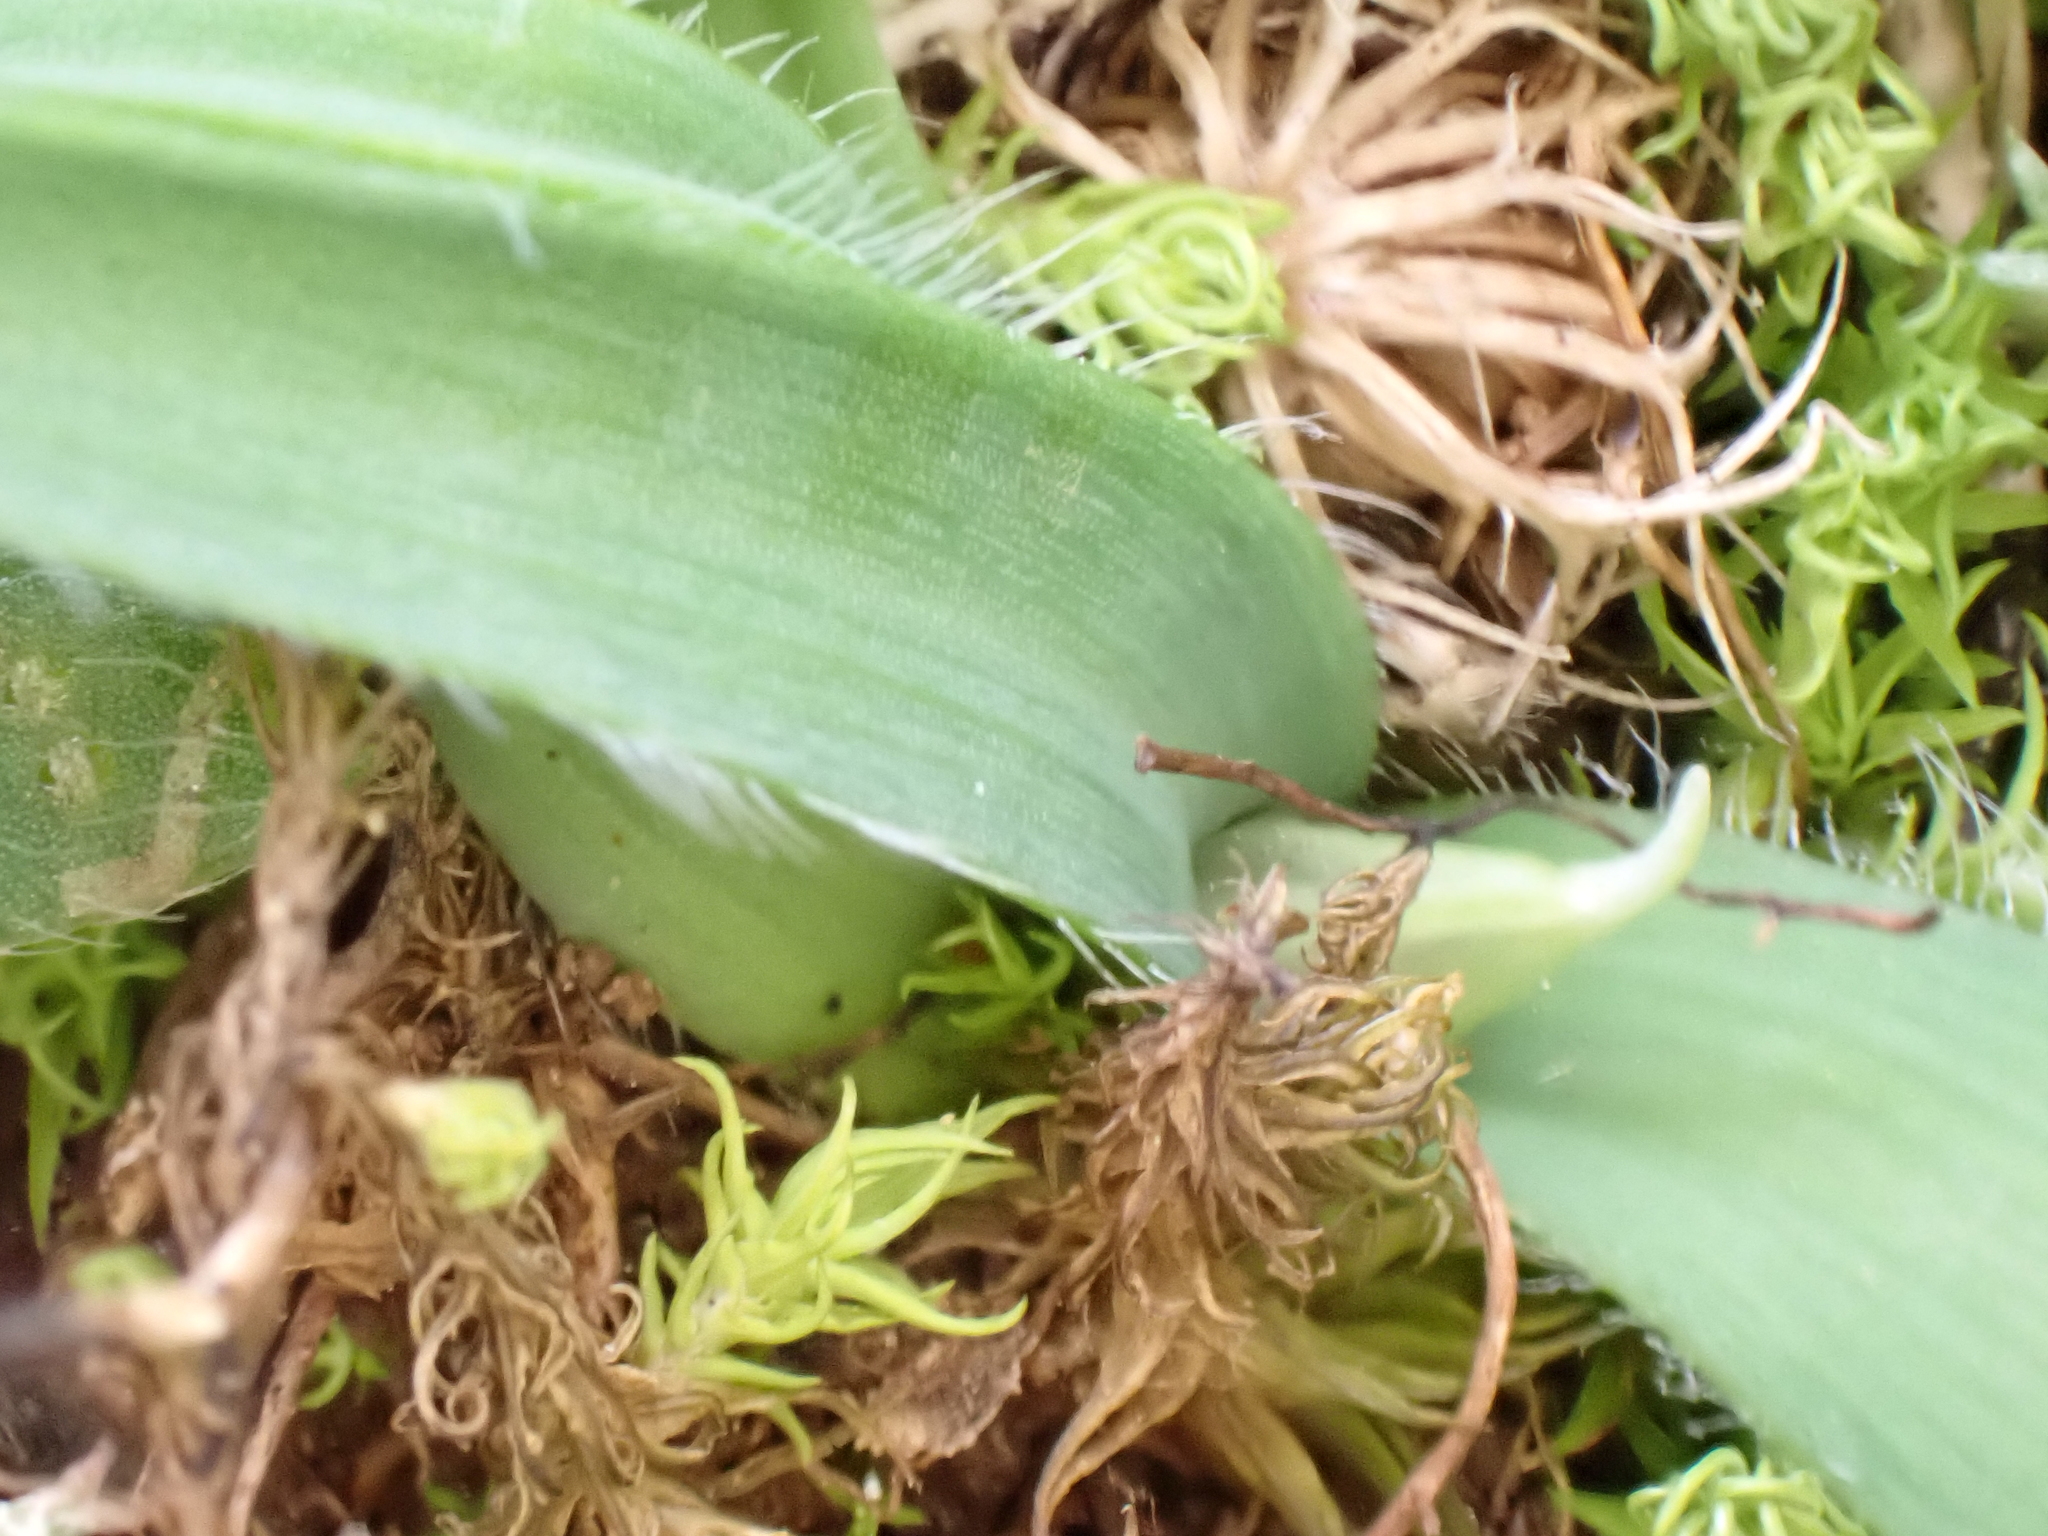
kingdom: Plantae
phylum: Tracheophyta
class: Liliopsida
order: Asparagales
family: Amaryllidaceae
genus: Allium
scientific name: Allium chamaemoly
